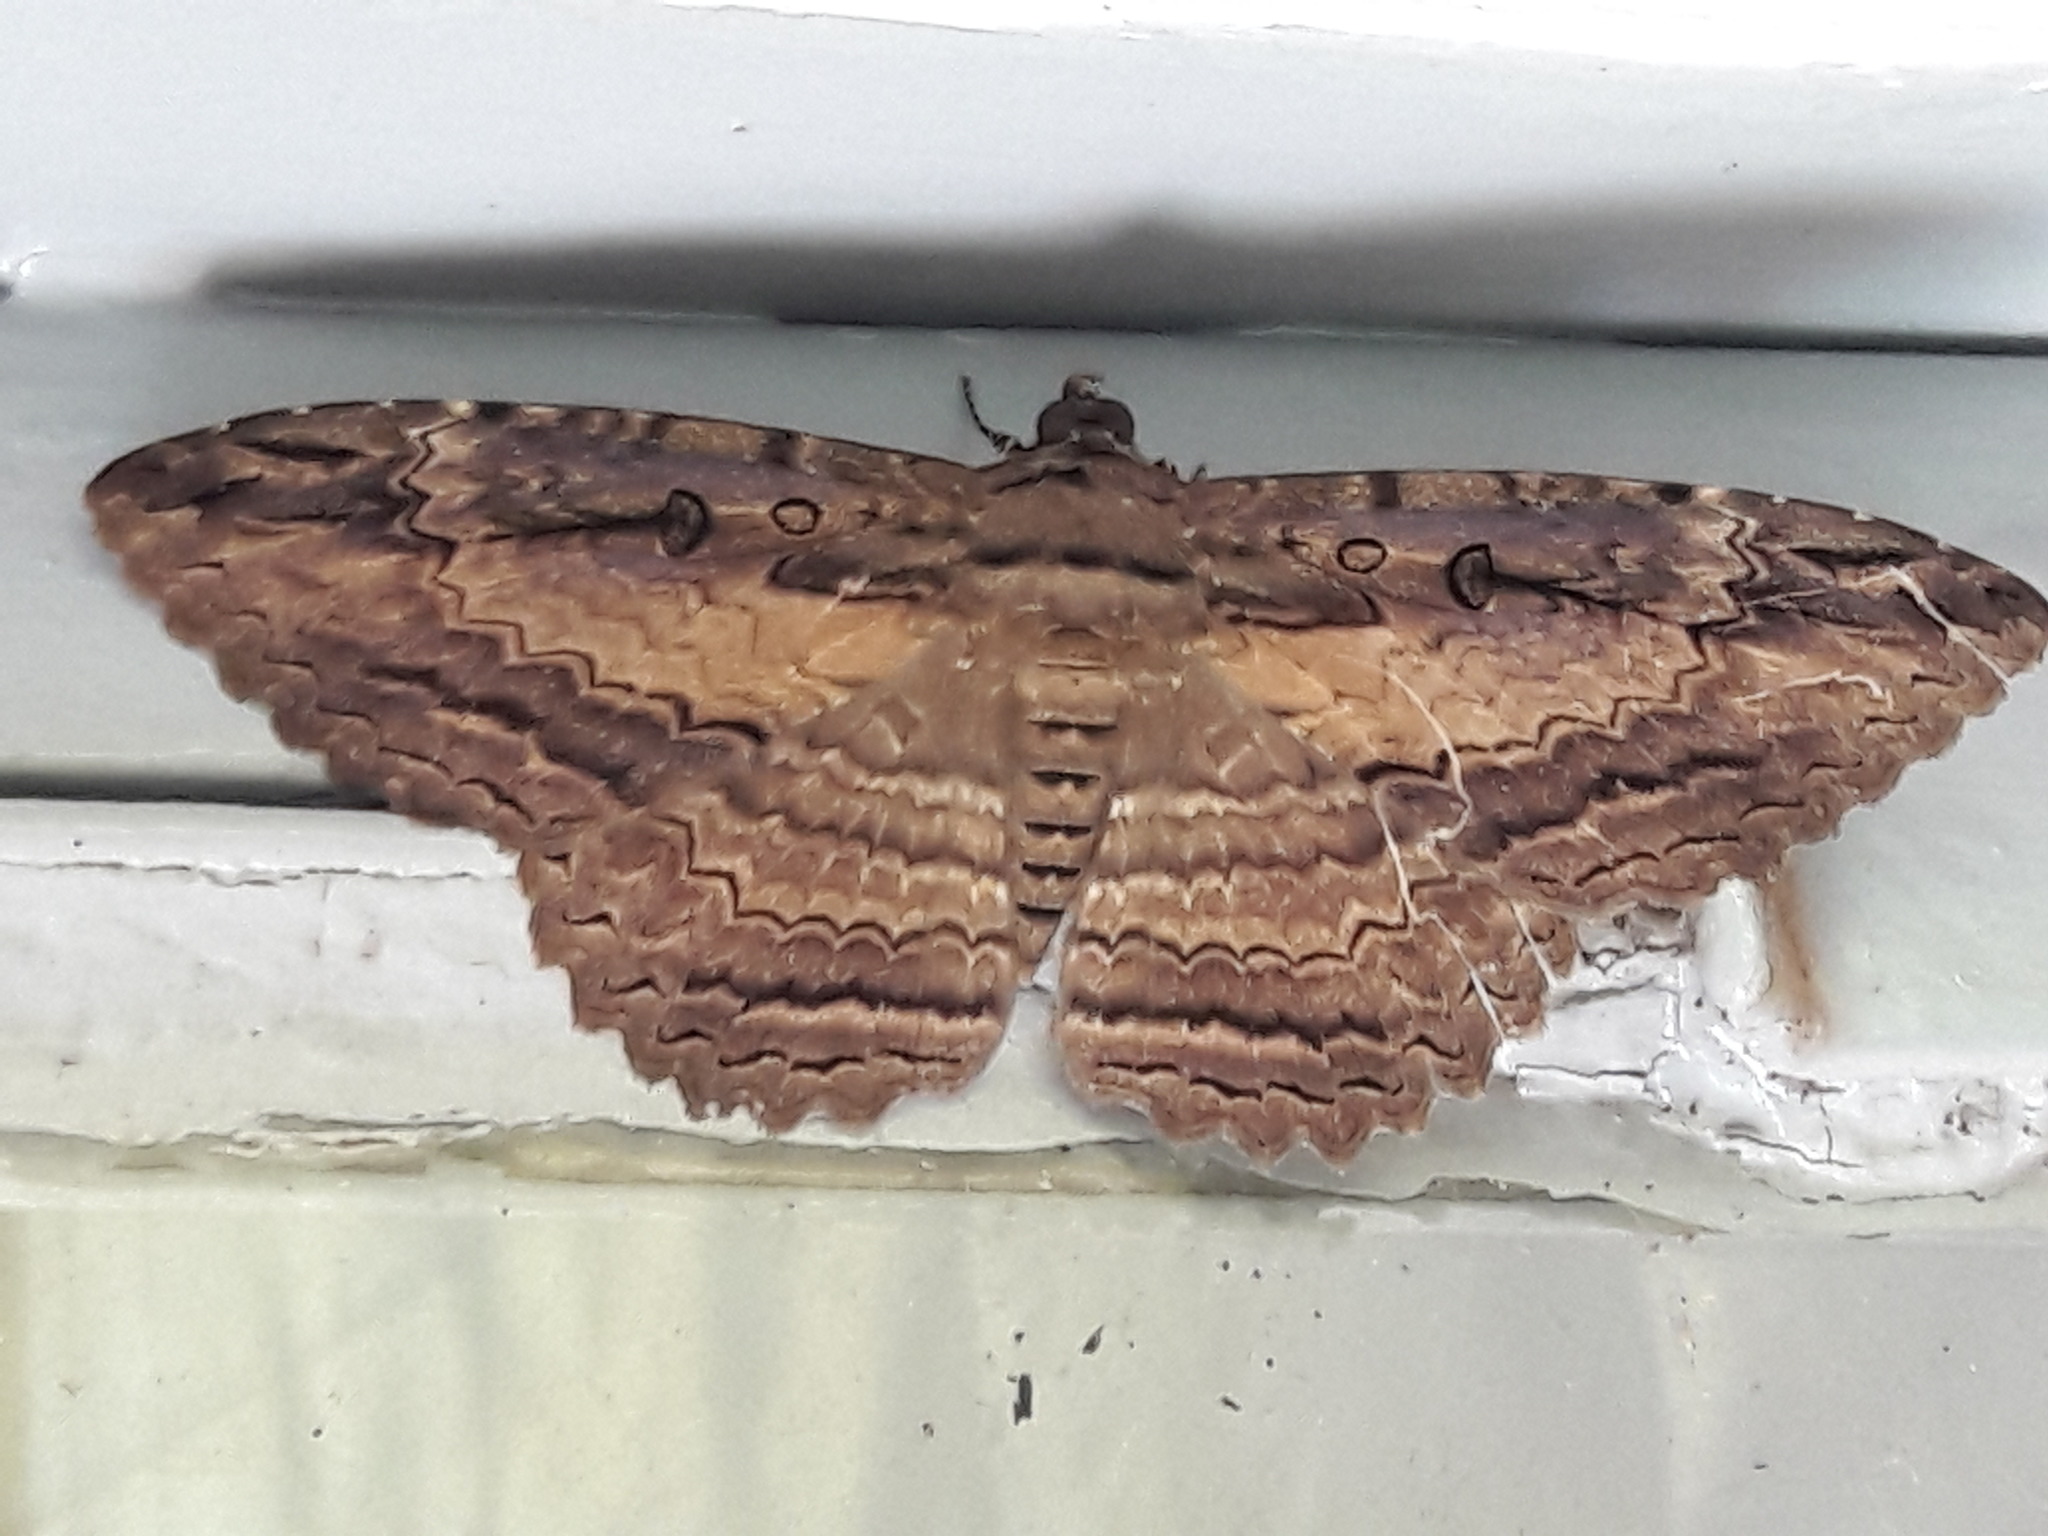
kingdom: Animalia
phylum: Arthropoda
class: Insecta
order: Lepidoptera
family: Erebidae
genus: Feigeria
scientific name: Feigeria buteo
